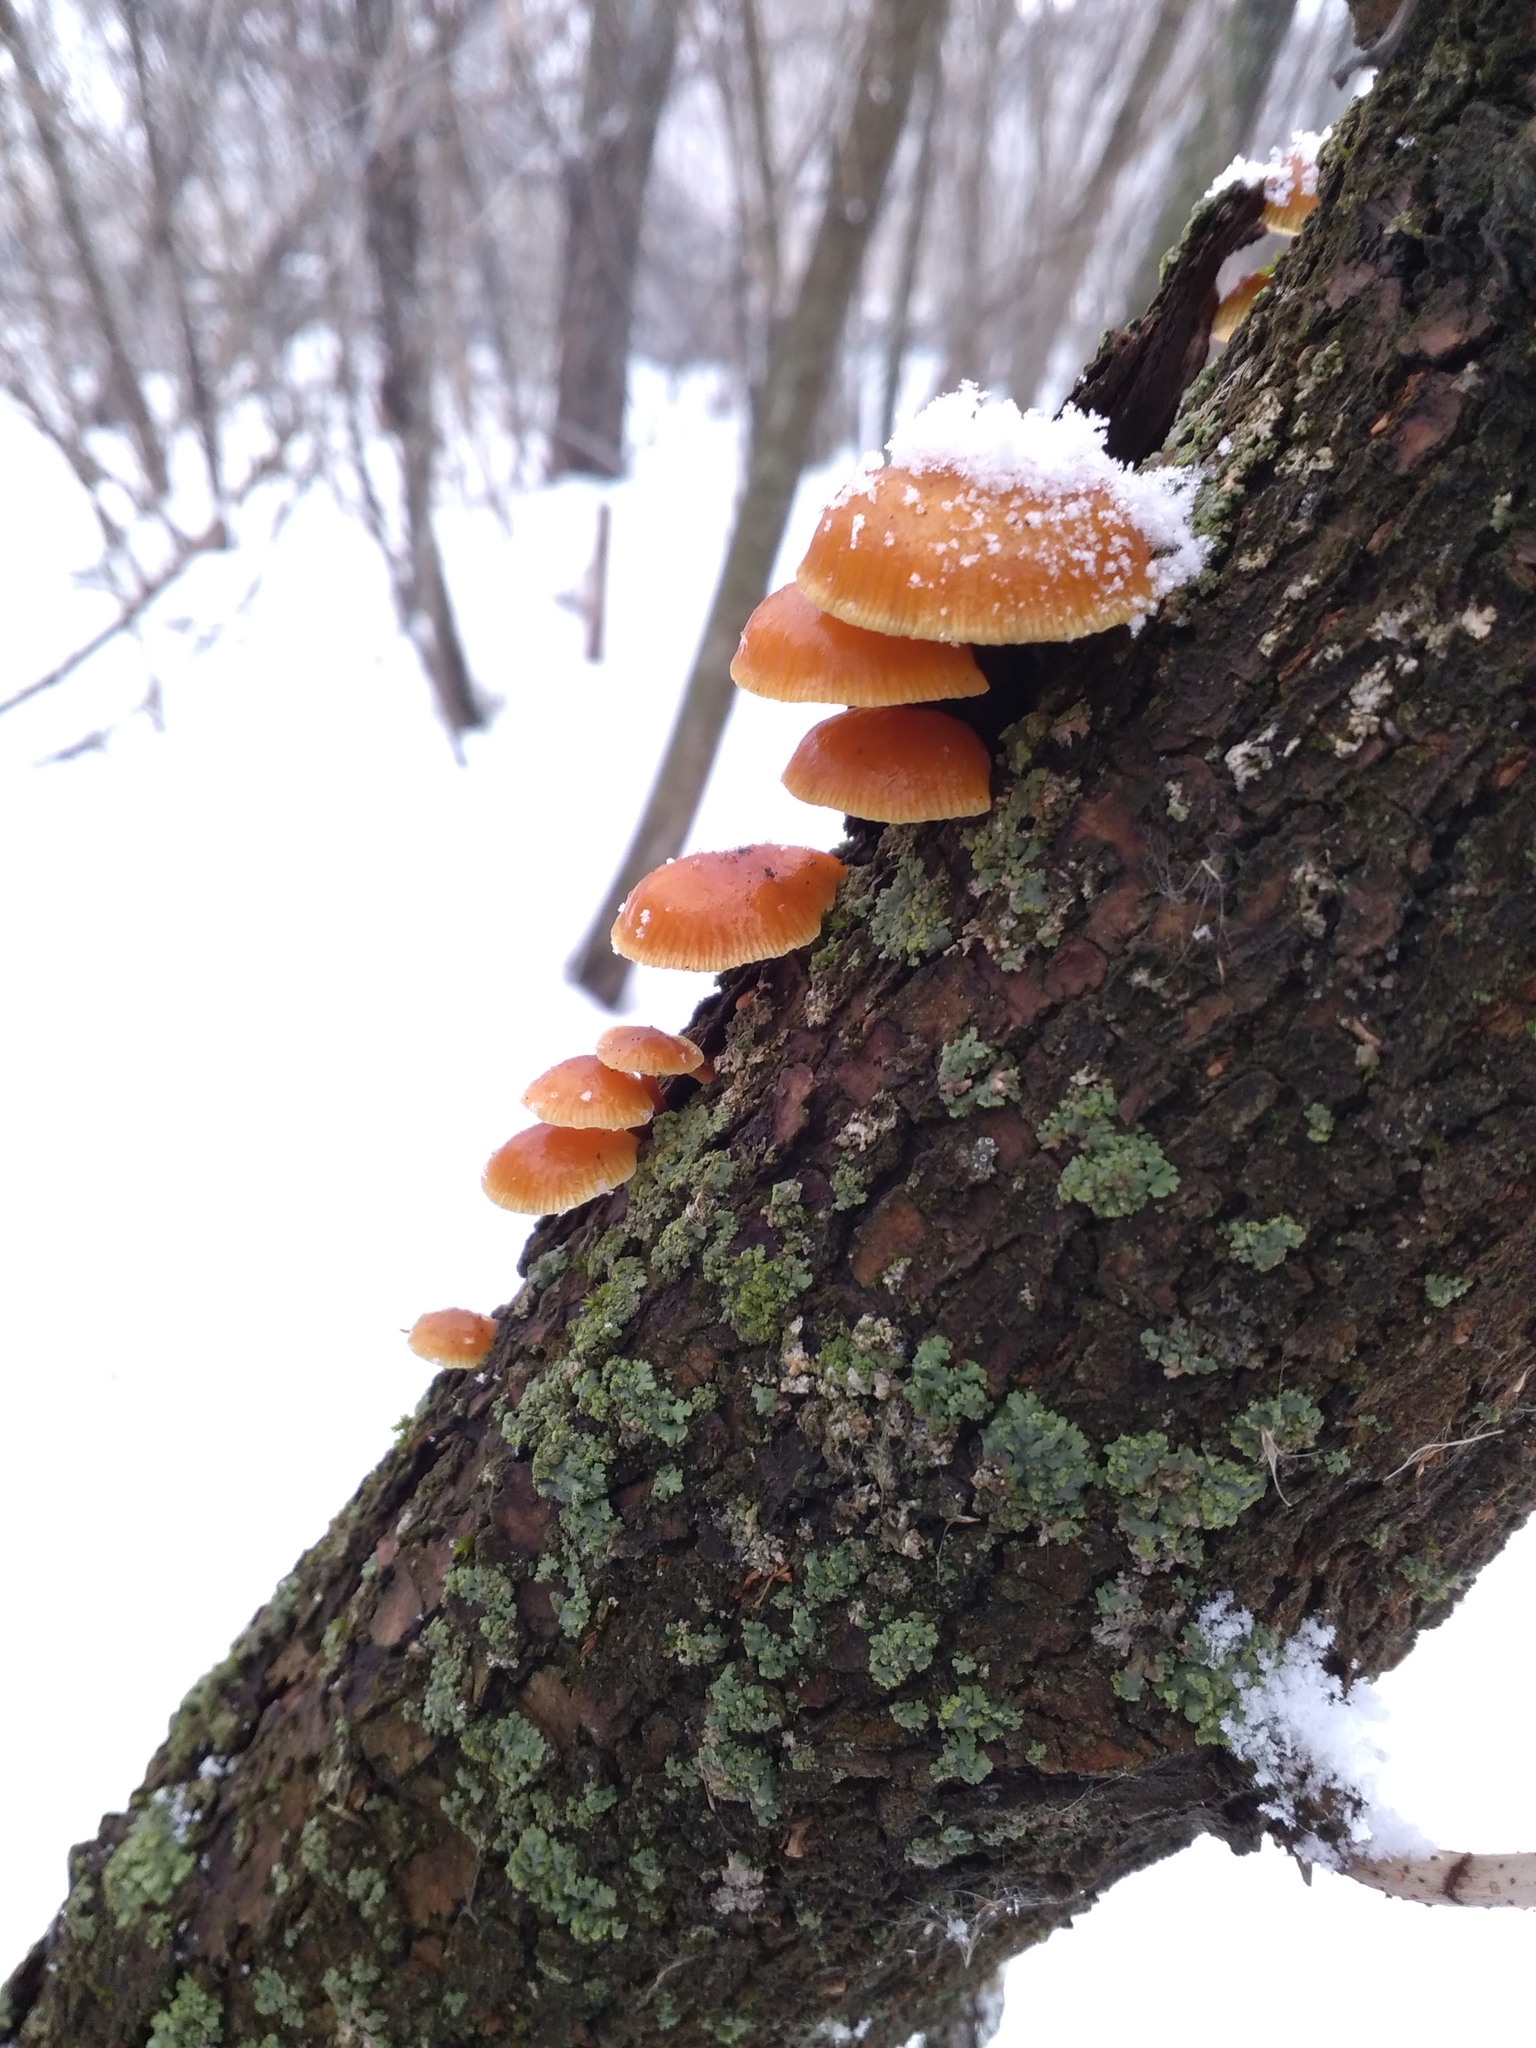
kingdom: Fungi
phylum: Basidiomycota
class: Agaricomycetes
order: Agaricales
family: Physalacriaceae
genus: Flammulina
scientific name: Flammulina
